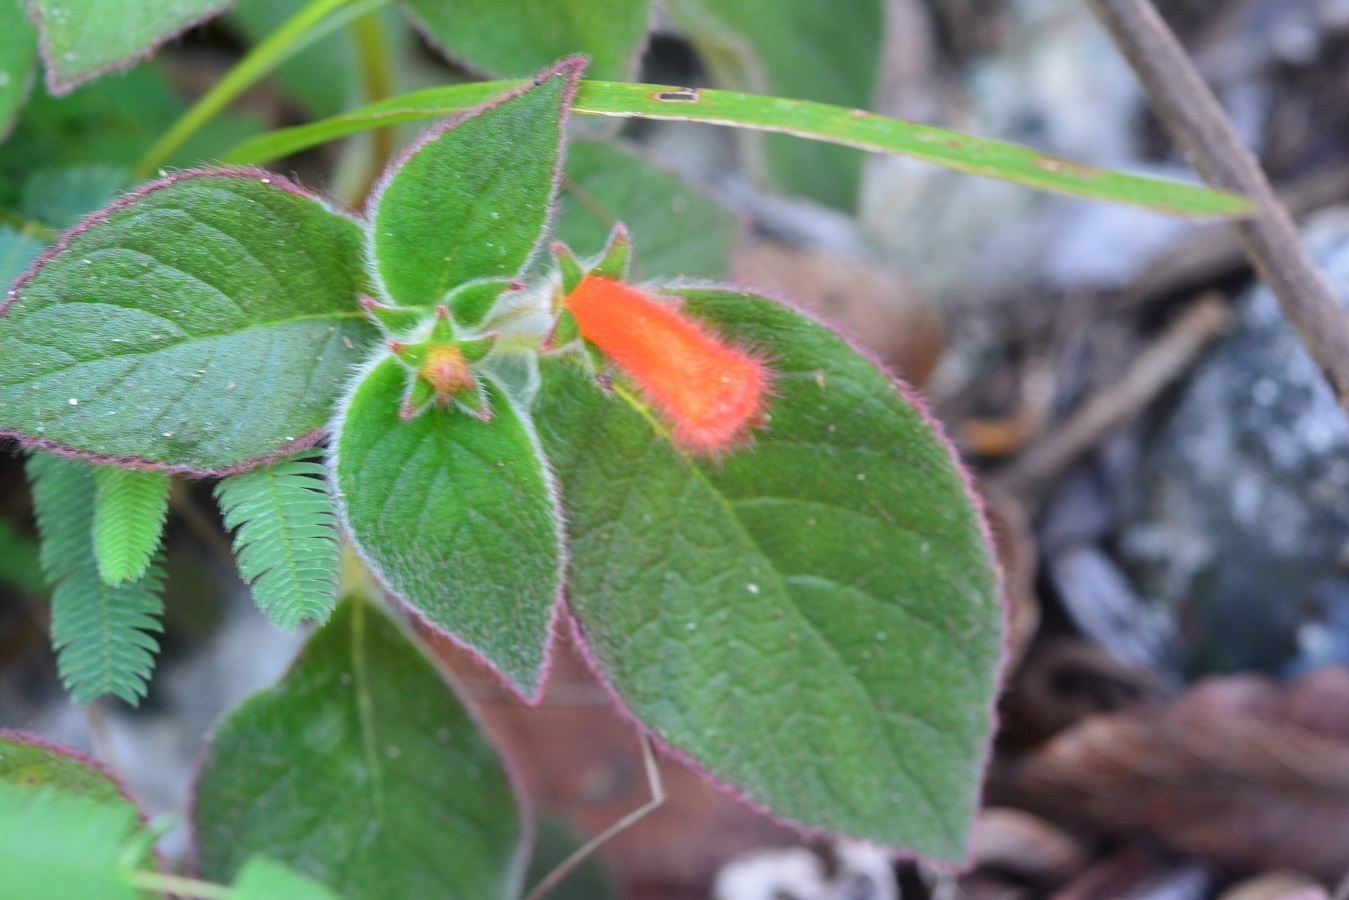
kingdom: Plantae
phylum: Tracheophyta
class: Magnoliopsida
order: Lamiales
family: Gesneriaceae
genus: Kohleria
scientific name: Kohleria rugata
